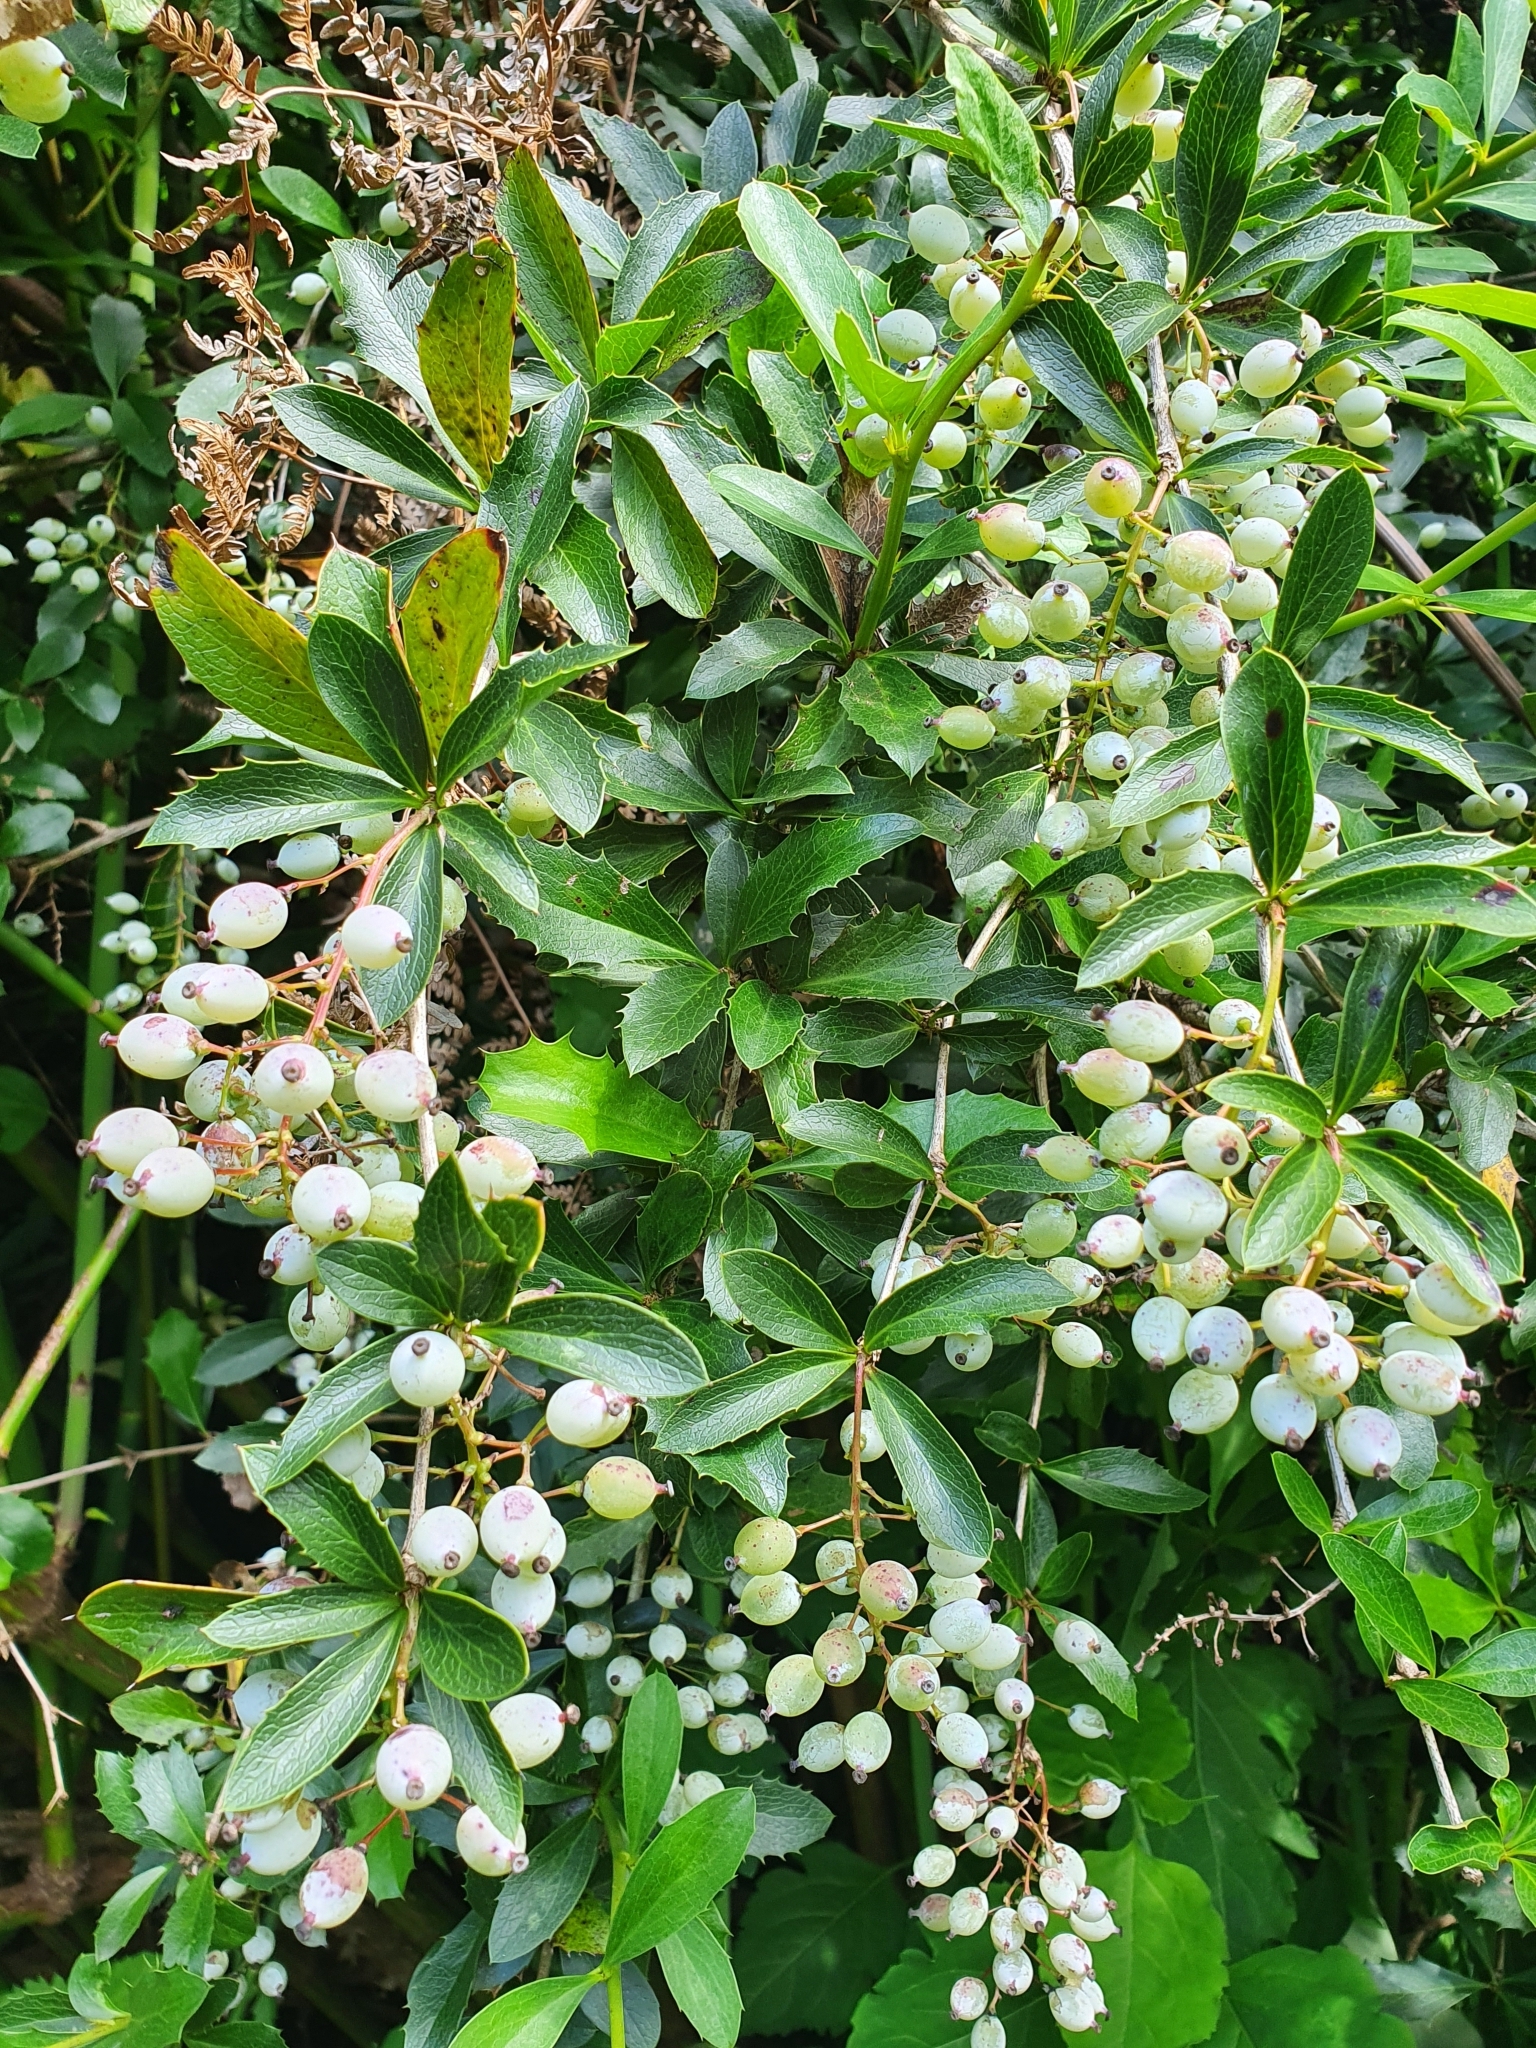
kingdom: Plantae
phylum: Tracheophyta
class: Magnoliopsida
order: Ranunculales
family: Berberidaceae
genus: Berberis
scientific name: Berberis glaucocarpa
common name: Great barberry
